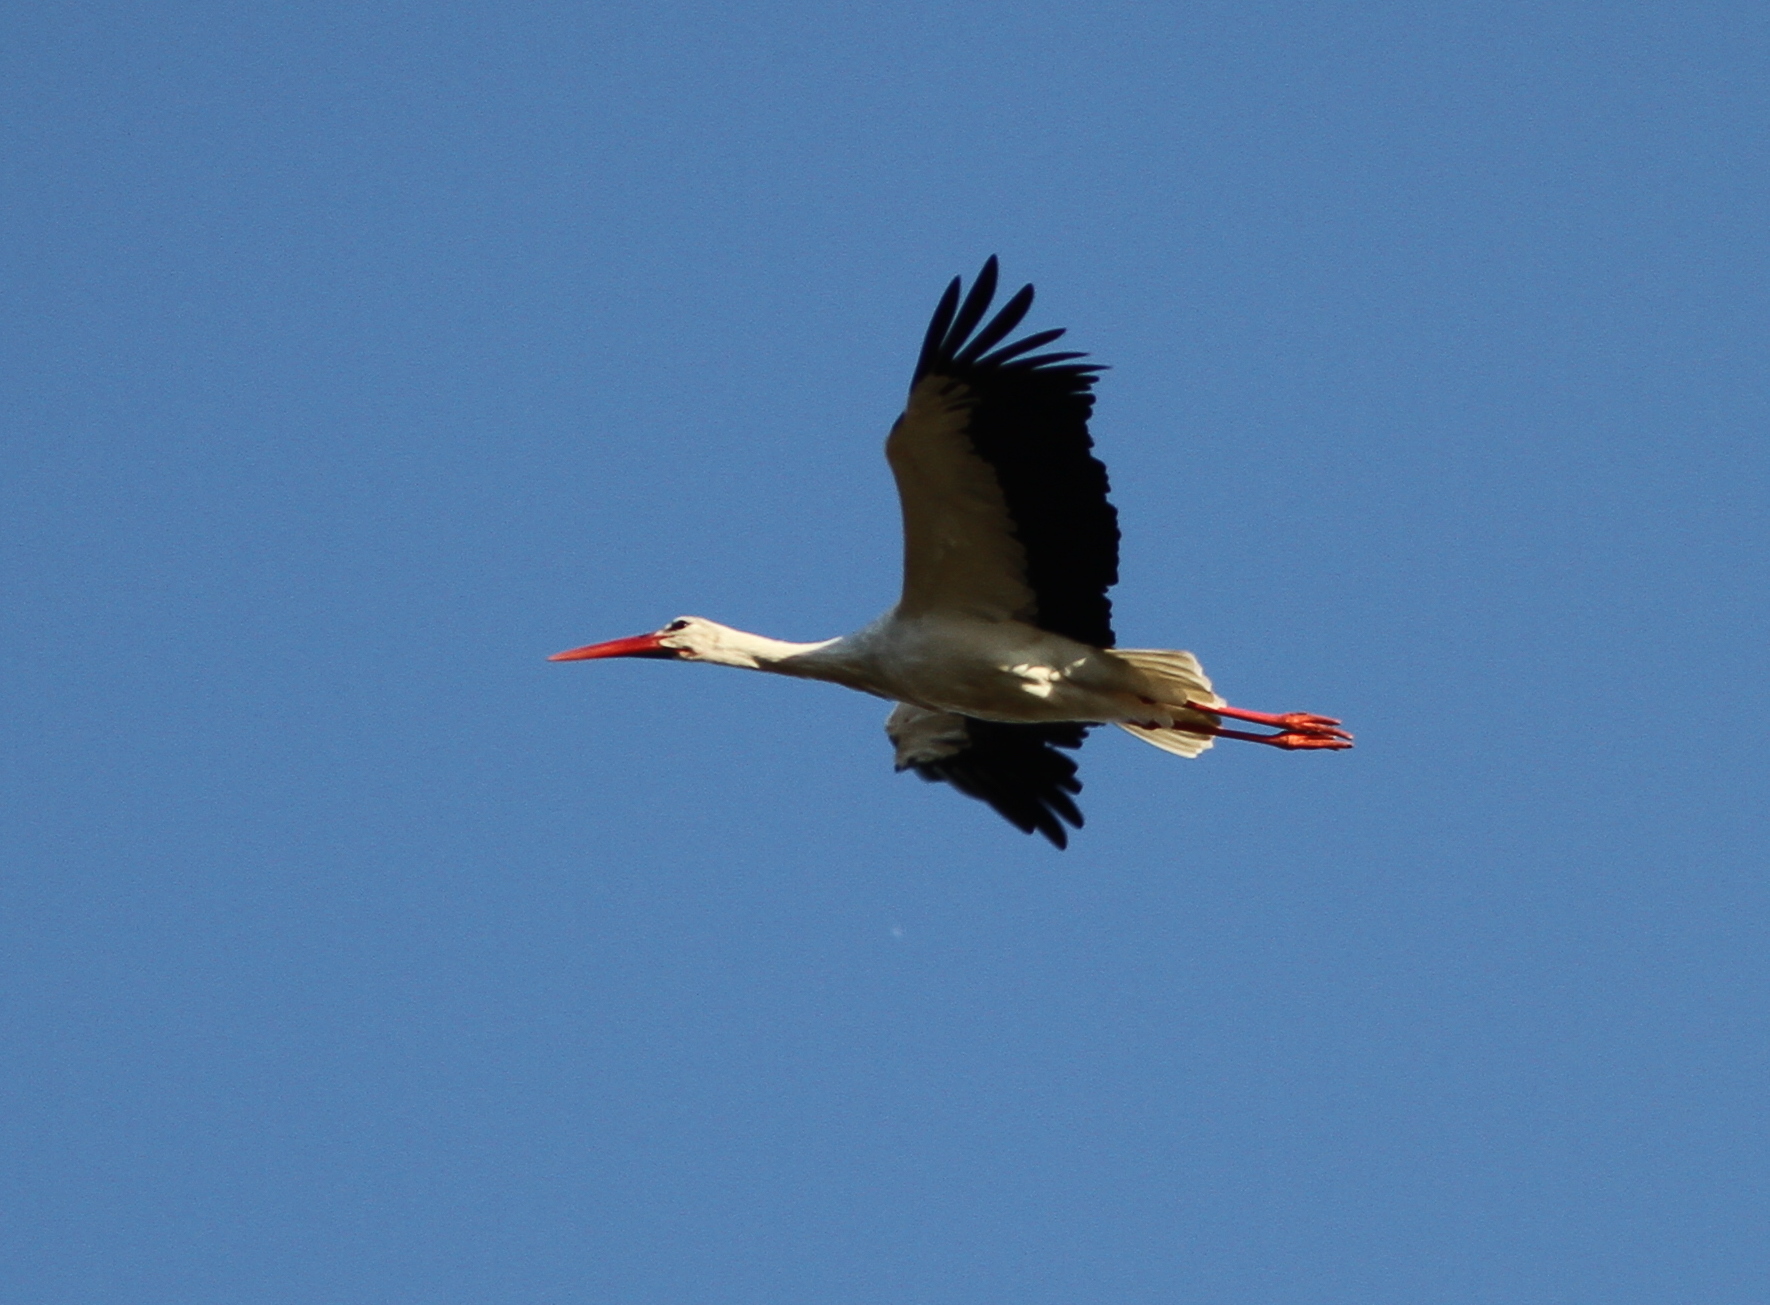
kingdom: Animalia
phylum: Chordata
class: Aves
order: Ciconiiformes
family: Ciconiidae
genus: Ciconia
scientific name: Ciconia ciconia
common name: White stork
